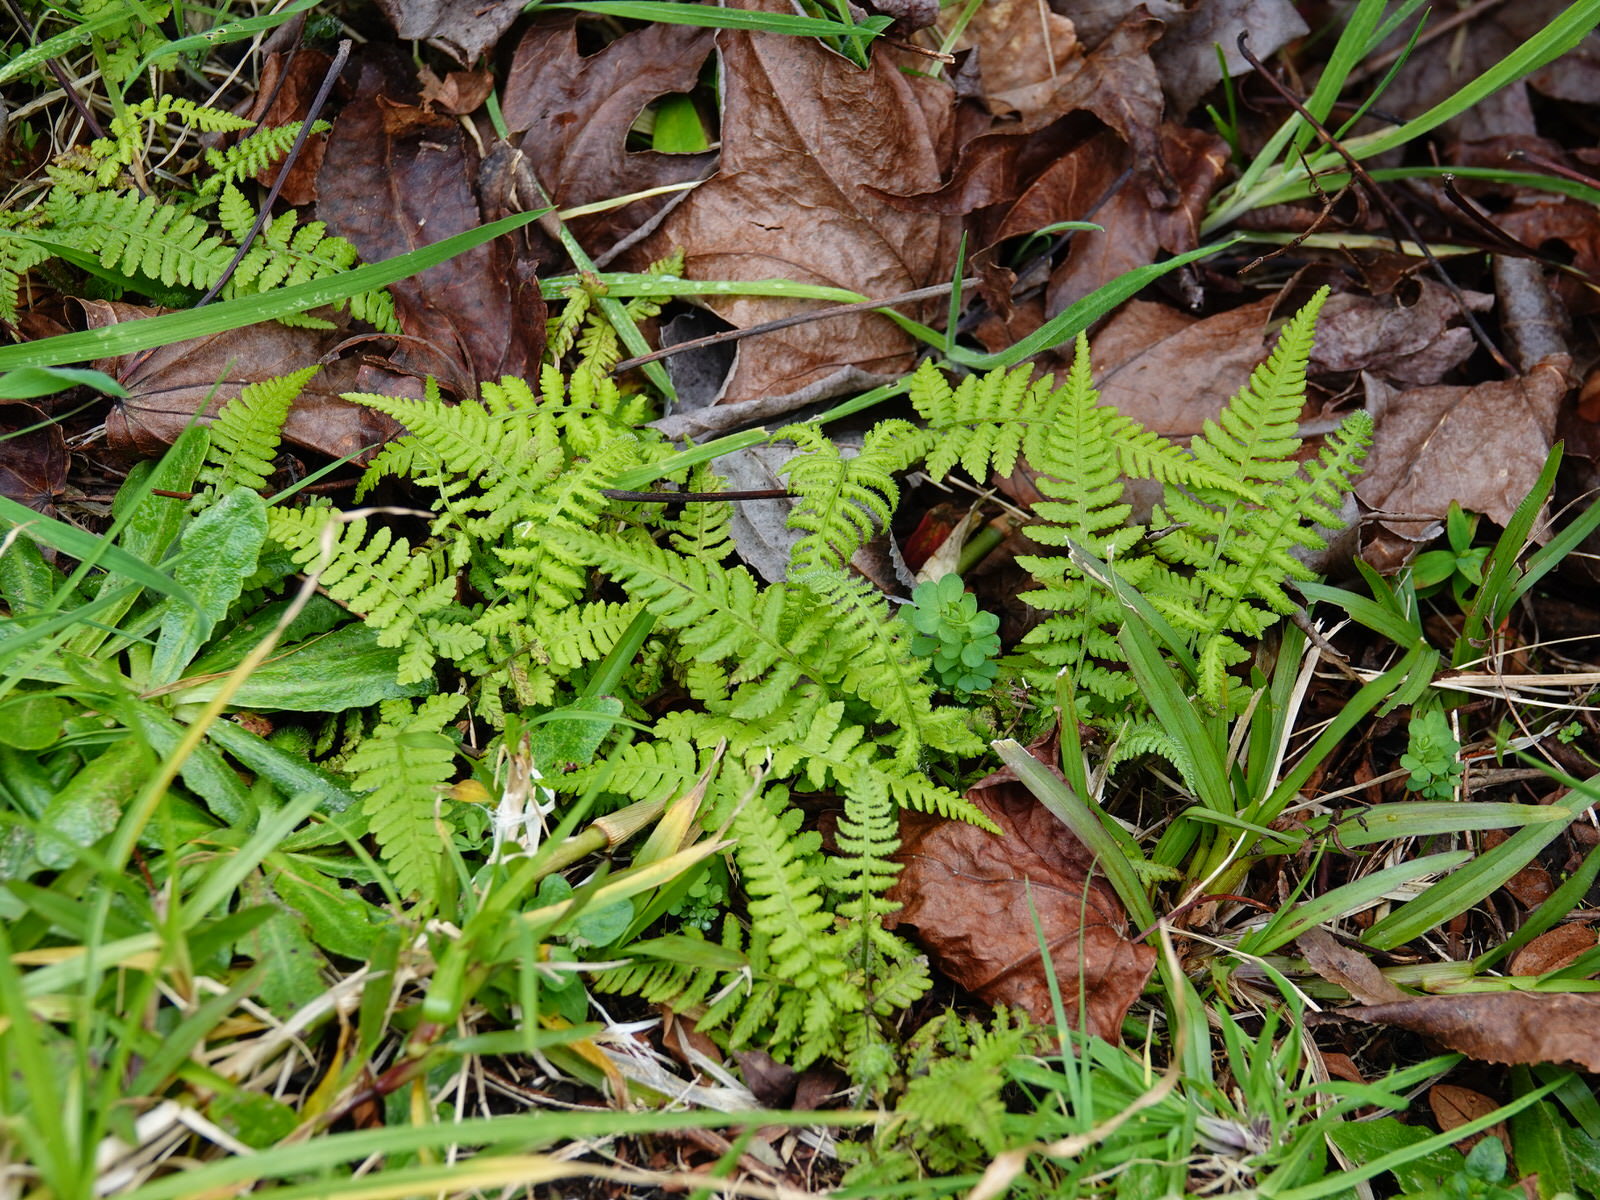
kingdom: Plantae
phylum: Tracheophyta
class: Polypodiopsida
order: Polypodiales
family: Athyriaceae
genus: Diplazium
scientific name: Diplazium congruum
